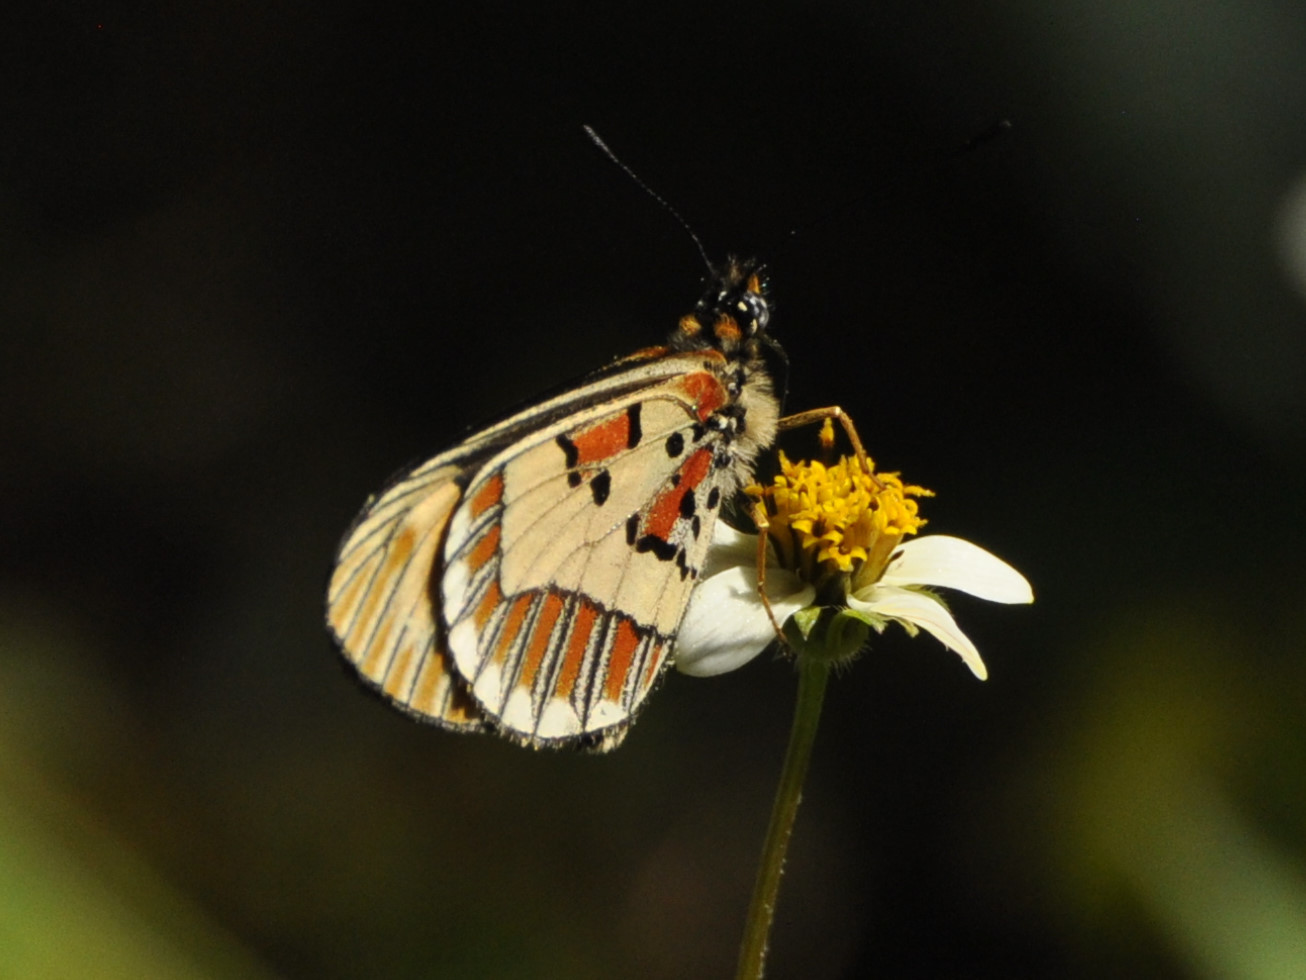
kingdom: Animalia
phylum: Arthropoda
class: Insecta
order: Lepidoptera
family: Nymphalidae
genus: Acraea
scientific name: Acraea
